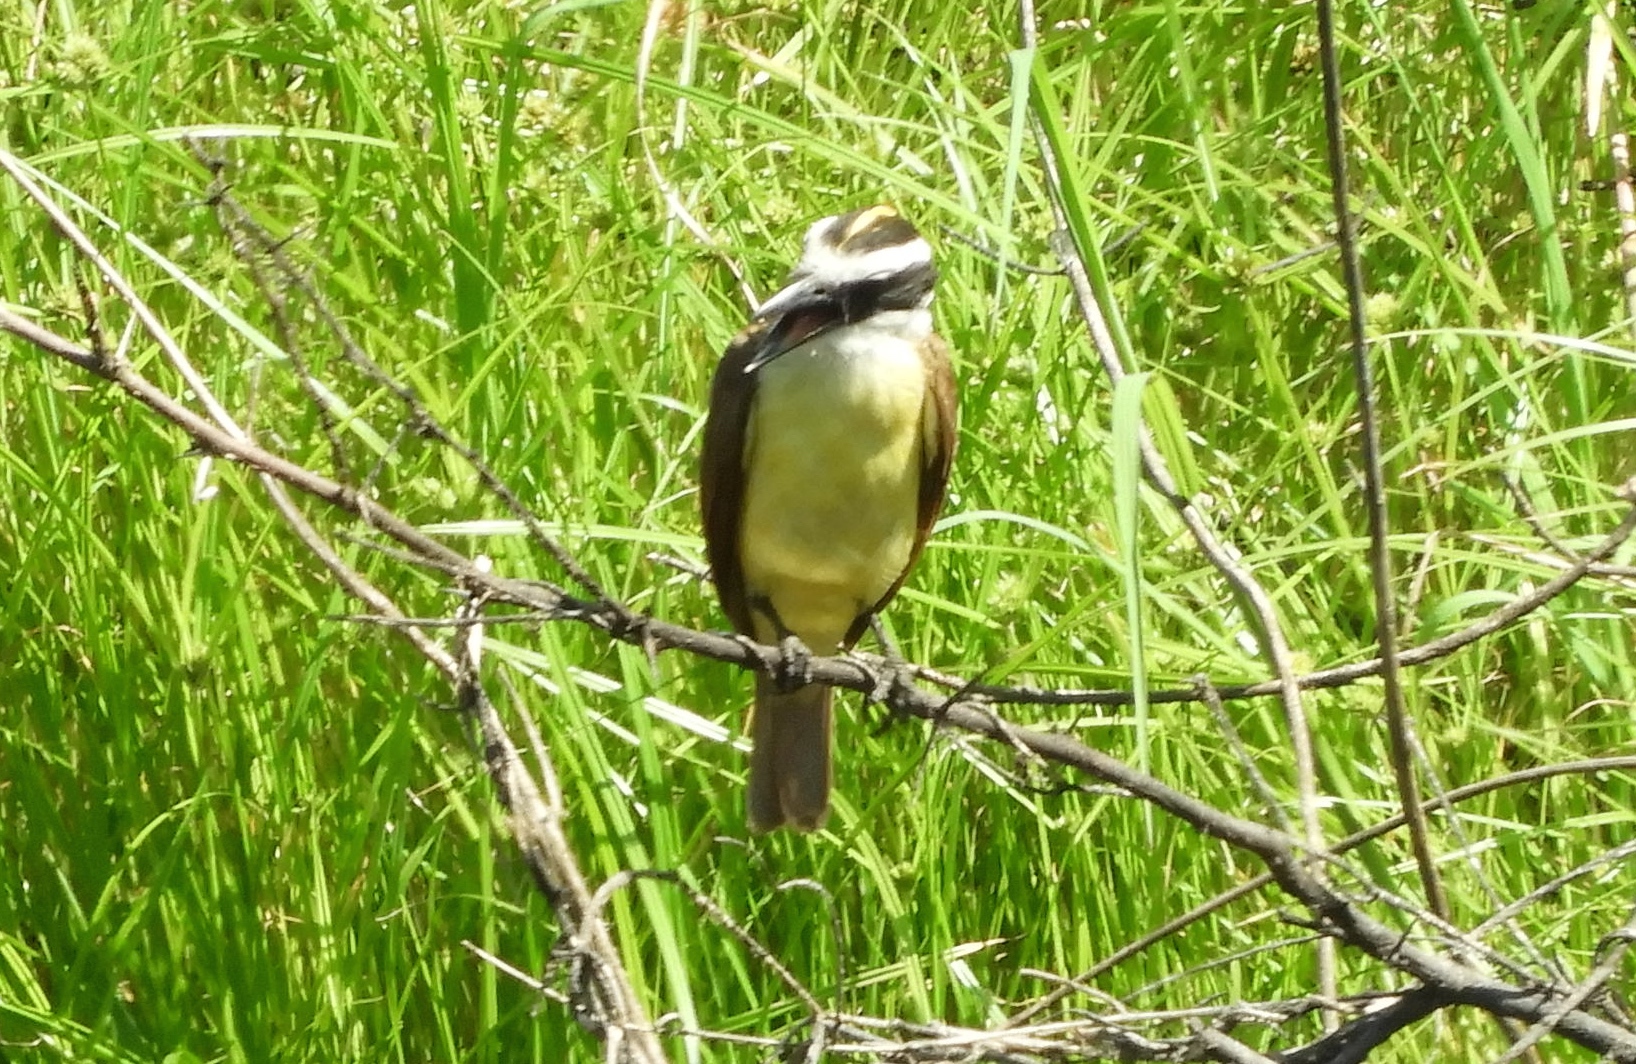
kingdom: Animalia
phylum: Chordata
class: Aves
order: Passeriformes
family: Tyrannidae
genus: Pitangus
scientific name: Pitangus sulphuratus
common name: Great kiskadee
